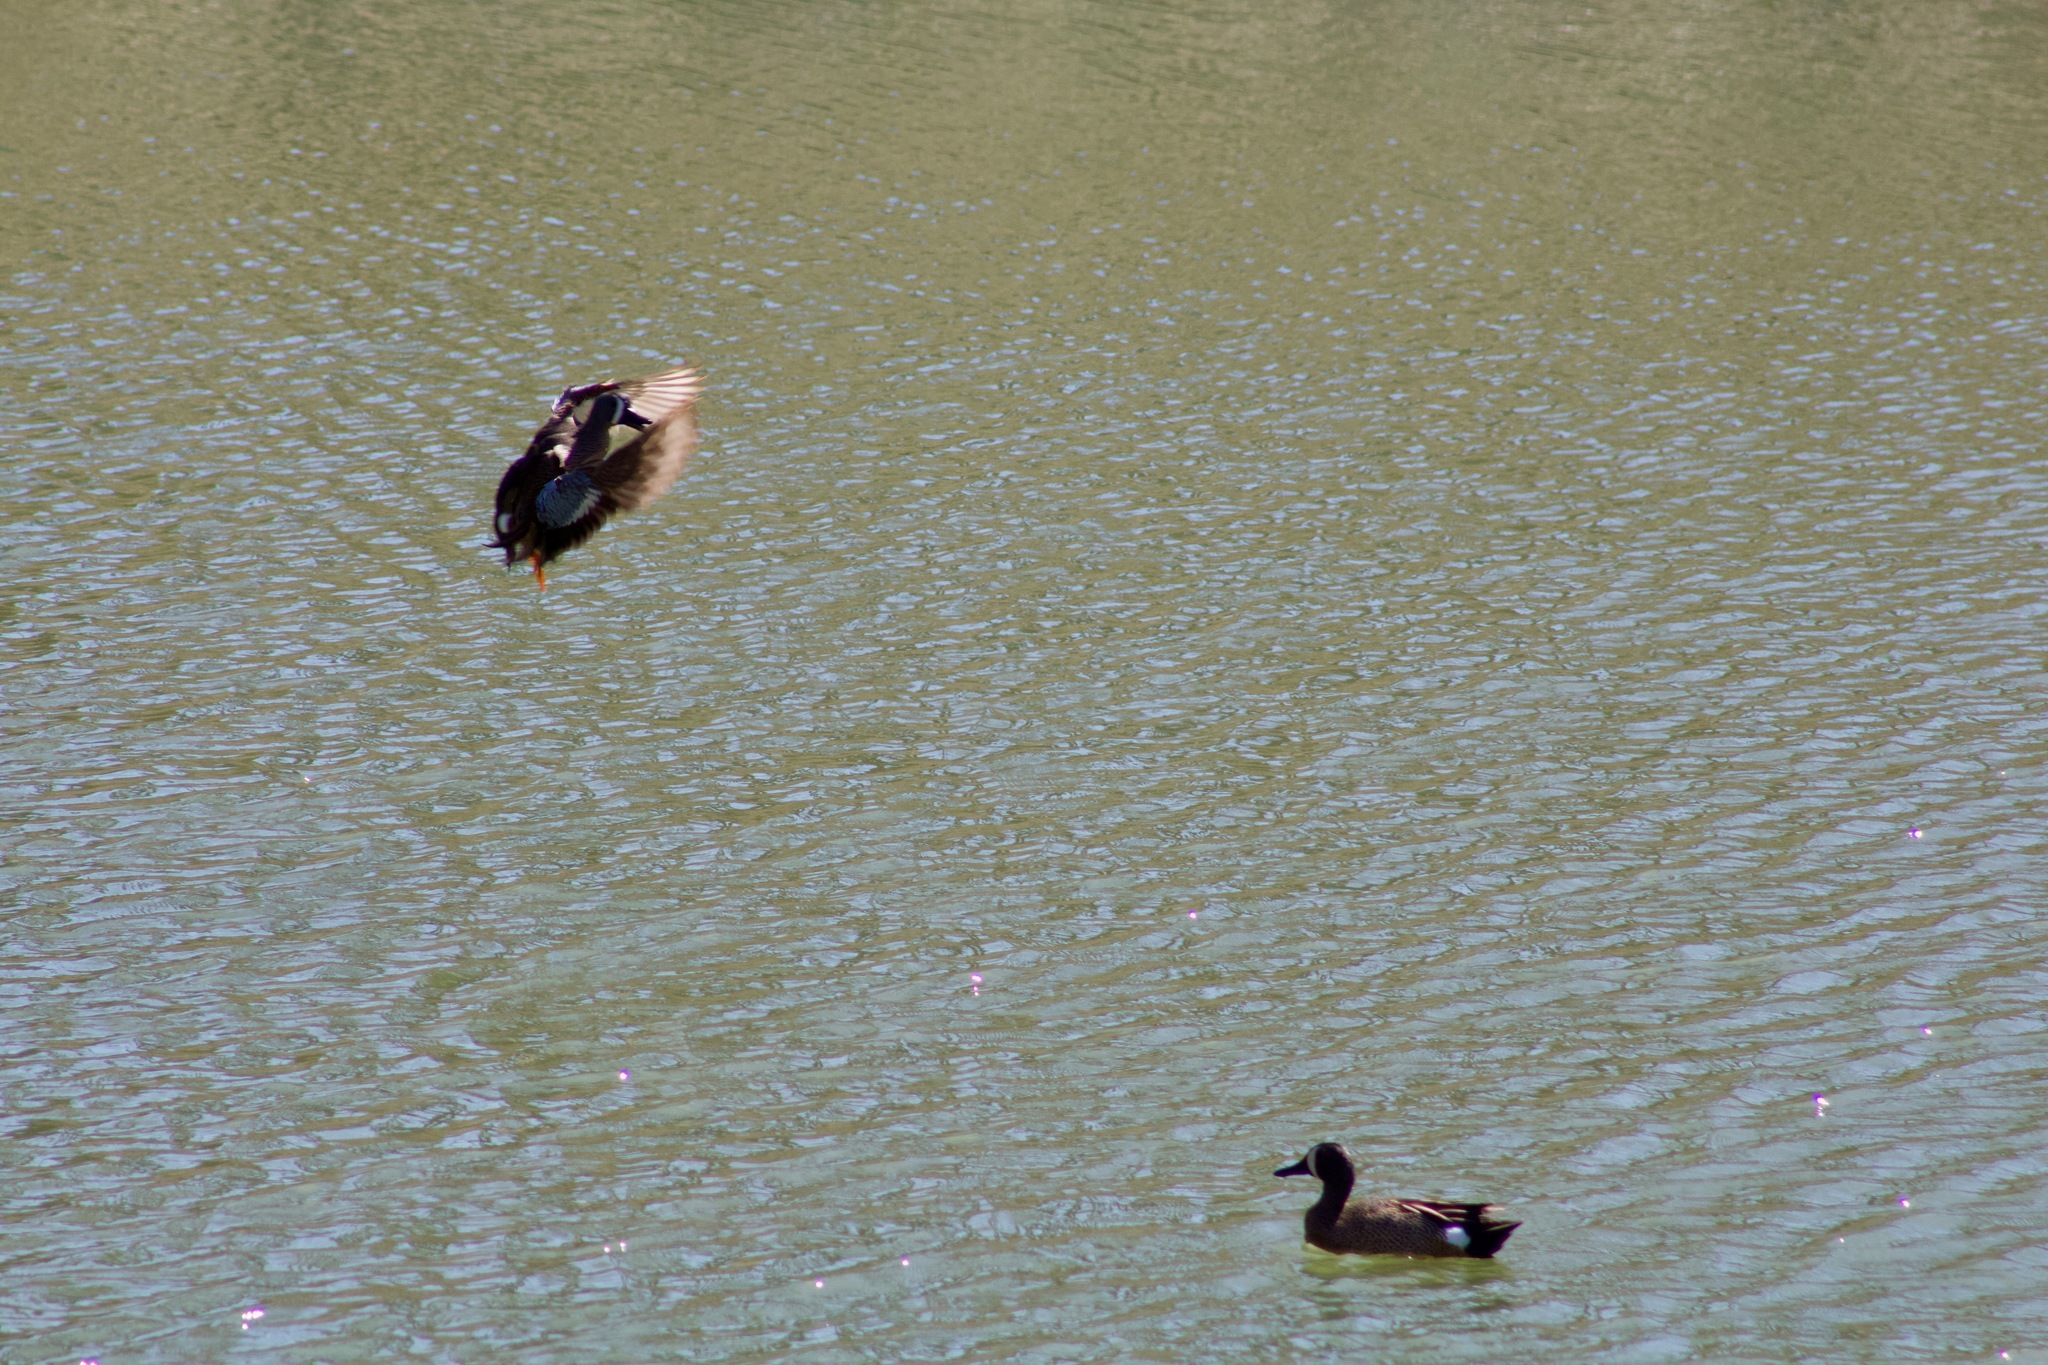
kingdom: Animalia
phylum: Chordata
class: Aves
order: Anseriformes
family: Anatidae
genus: Spatula
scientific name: Spatula discors
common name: Blue-winged teal
